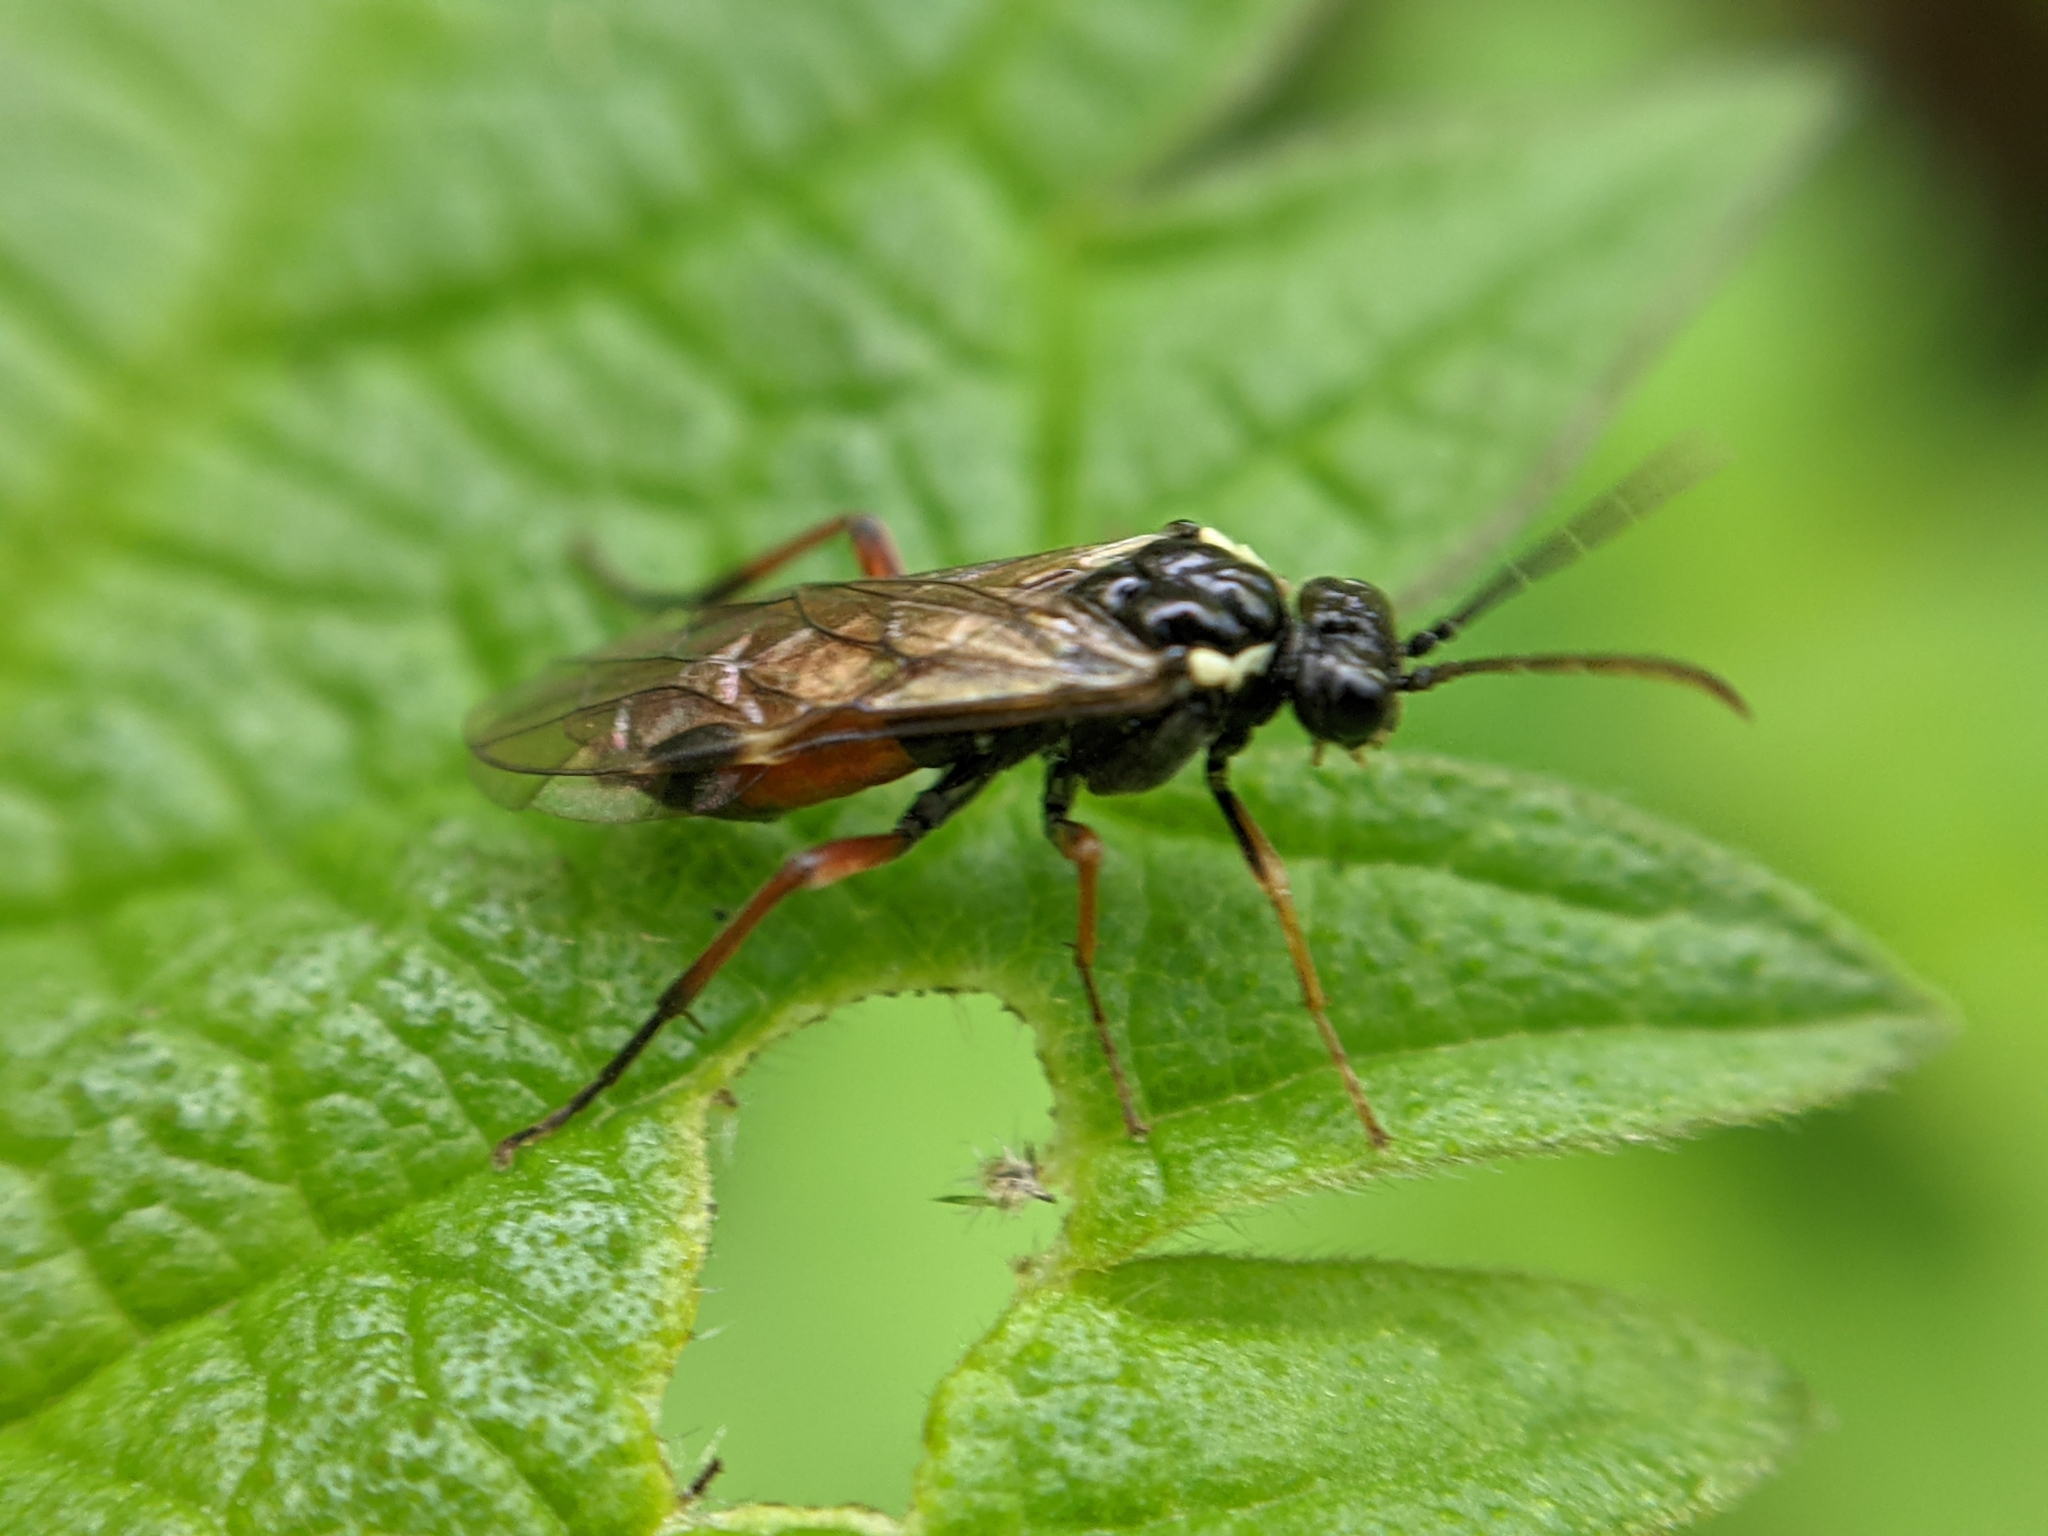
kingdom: Animalia
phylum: Arthropoda
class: Insecta
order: Hymenoptera
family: Tenthredinidae
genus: Aglaostigma
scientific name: Aglaostigma aucupariae
